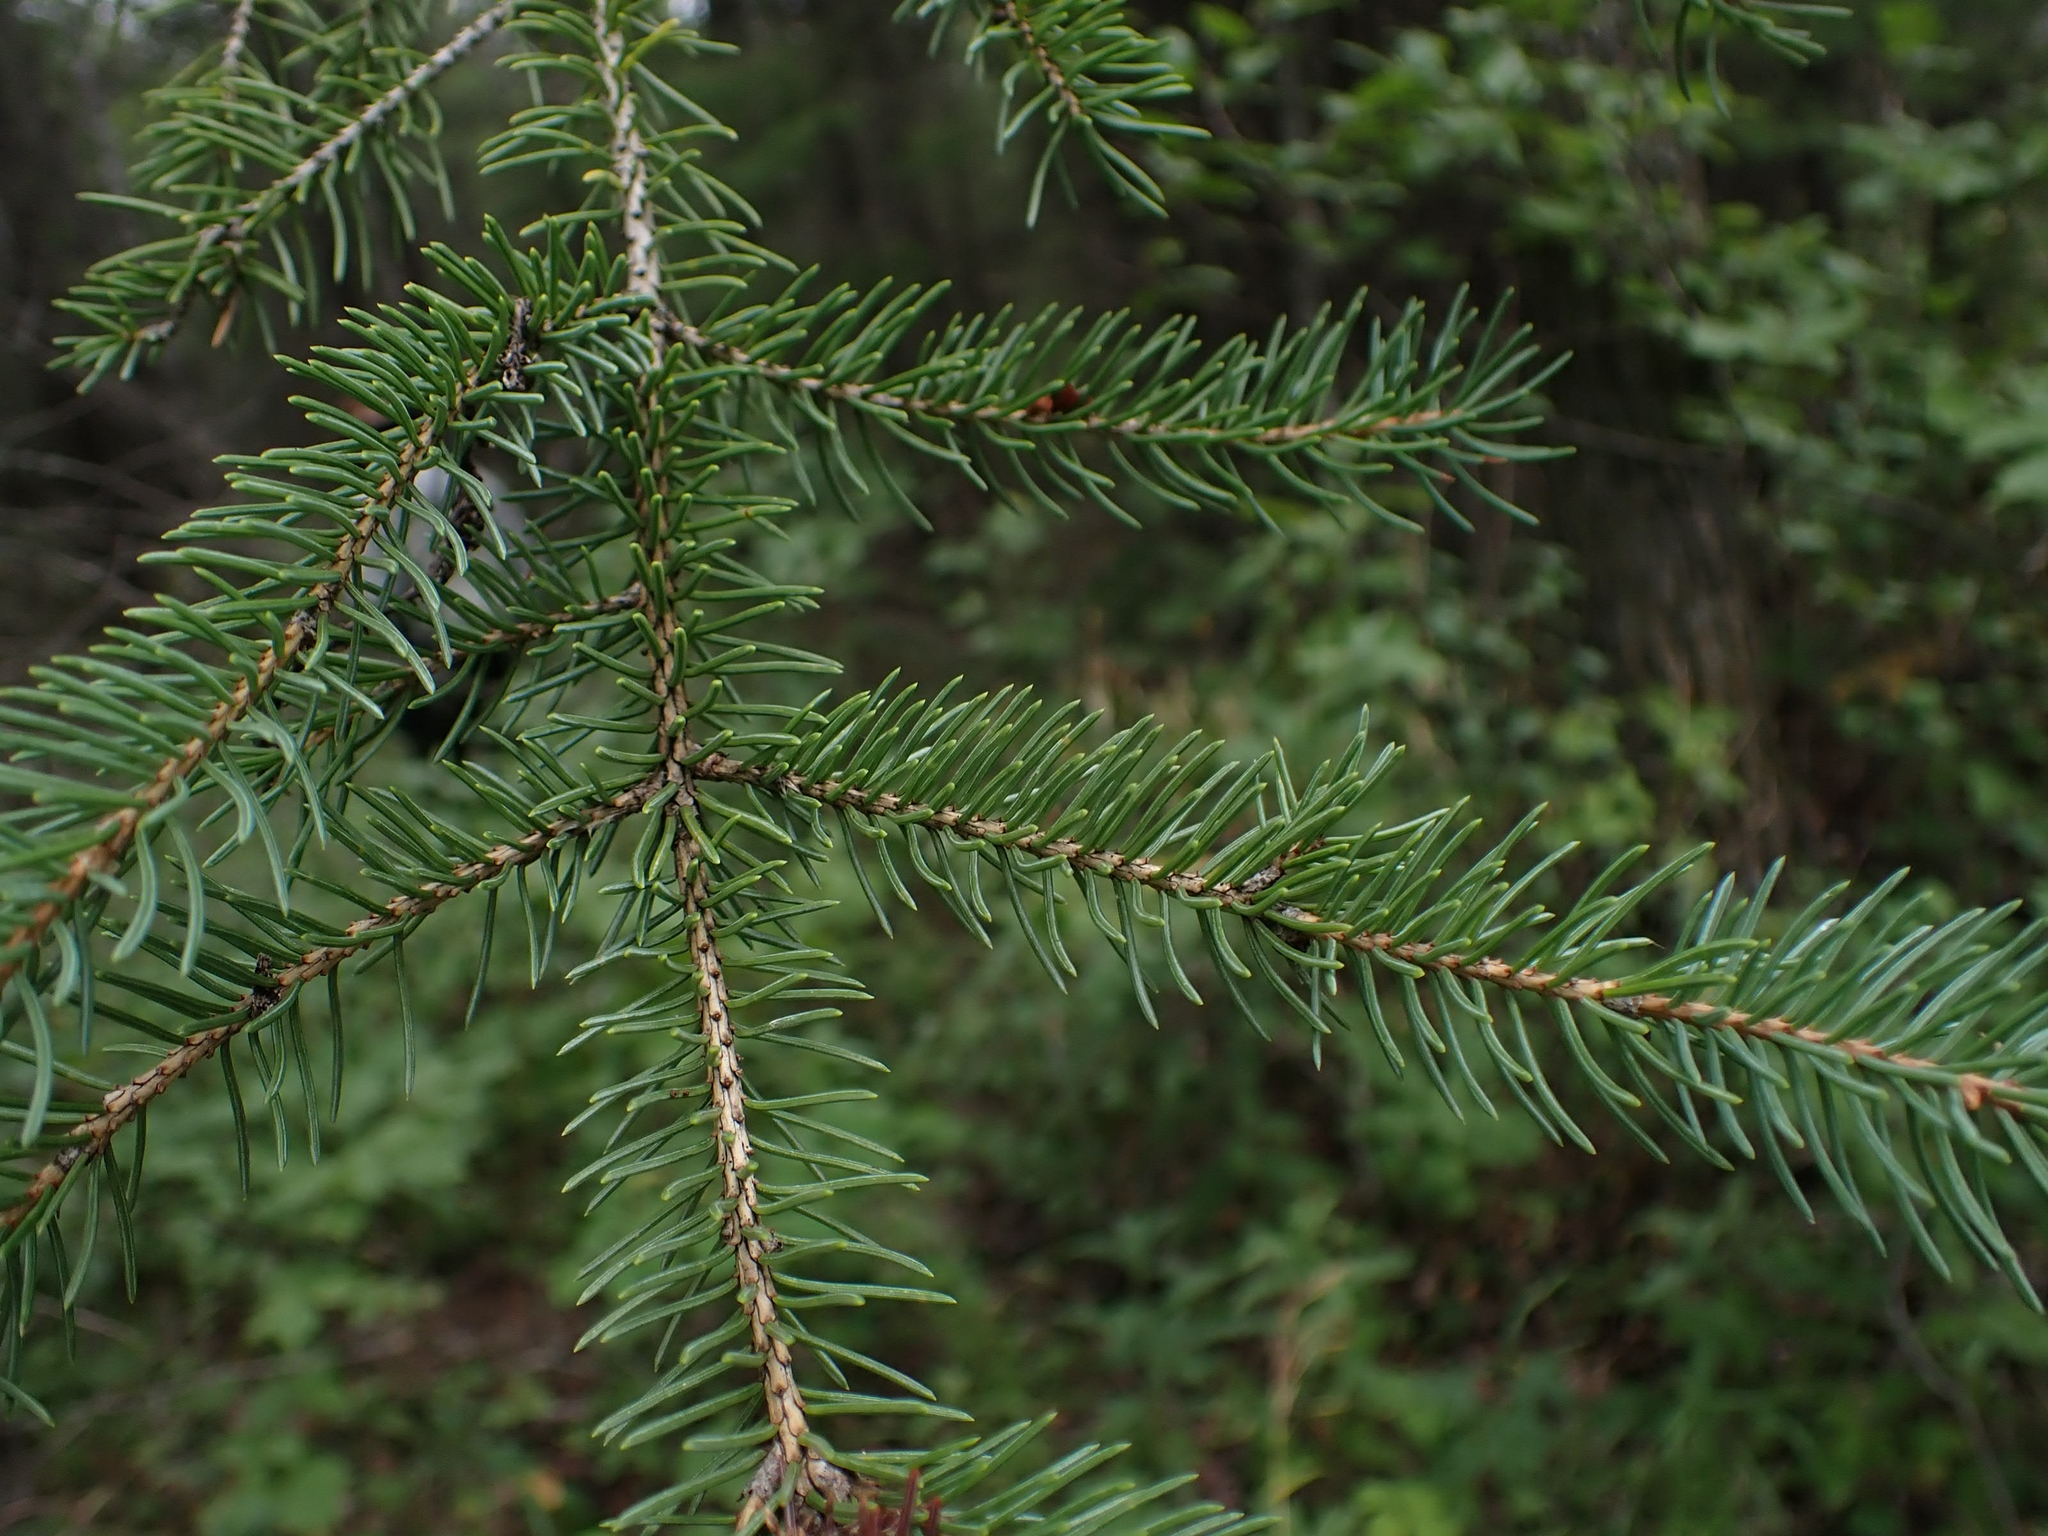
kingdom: Plantae
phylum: Tracheophyta
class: Pinopsida
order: Pinales
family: Pinaceae
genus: Picea
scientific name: Picea glauca
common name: White spruce
